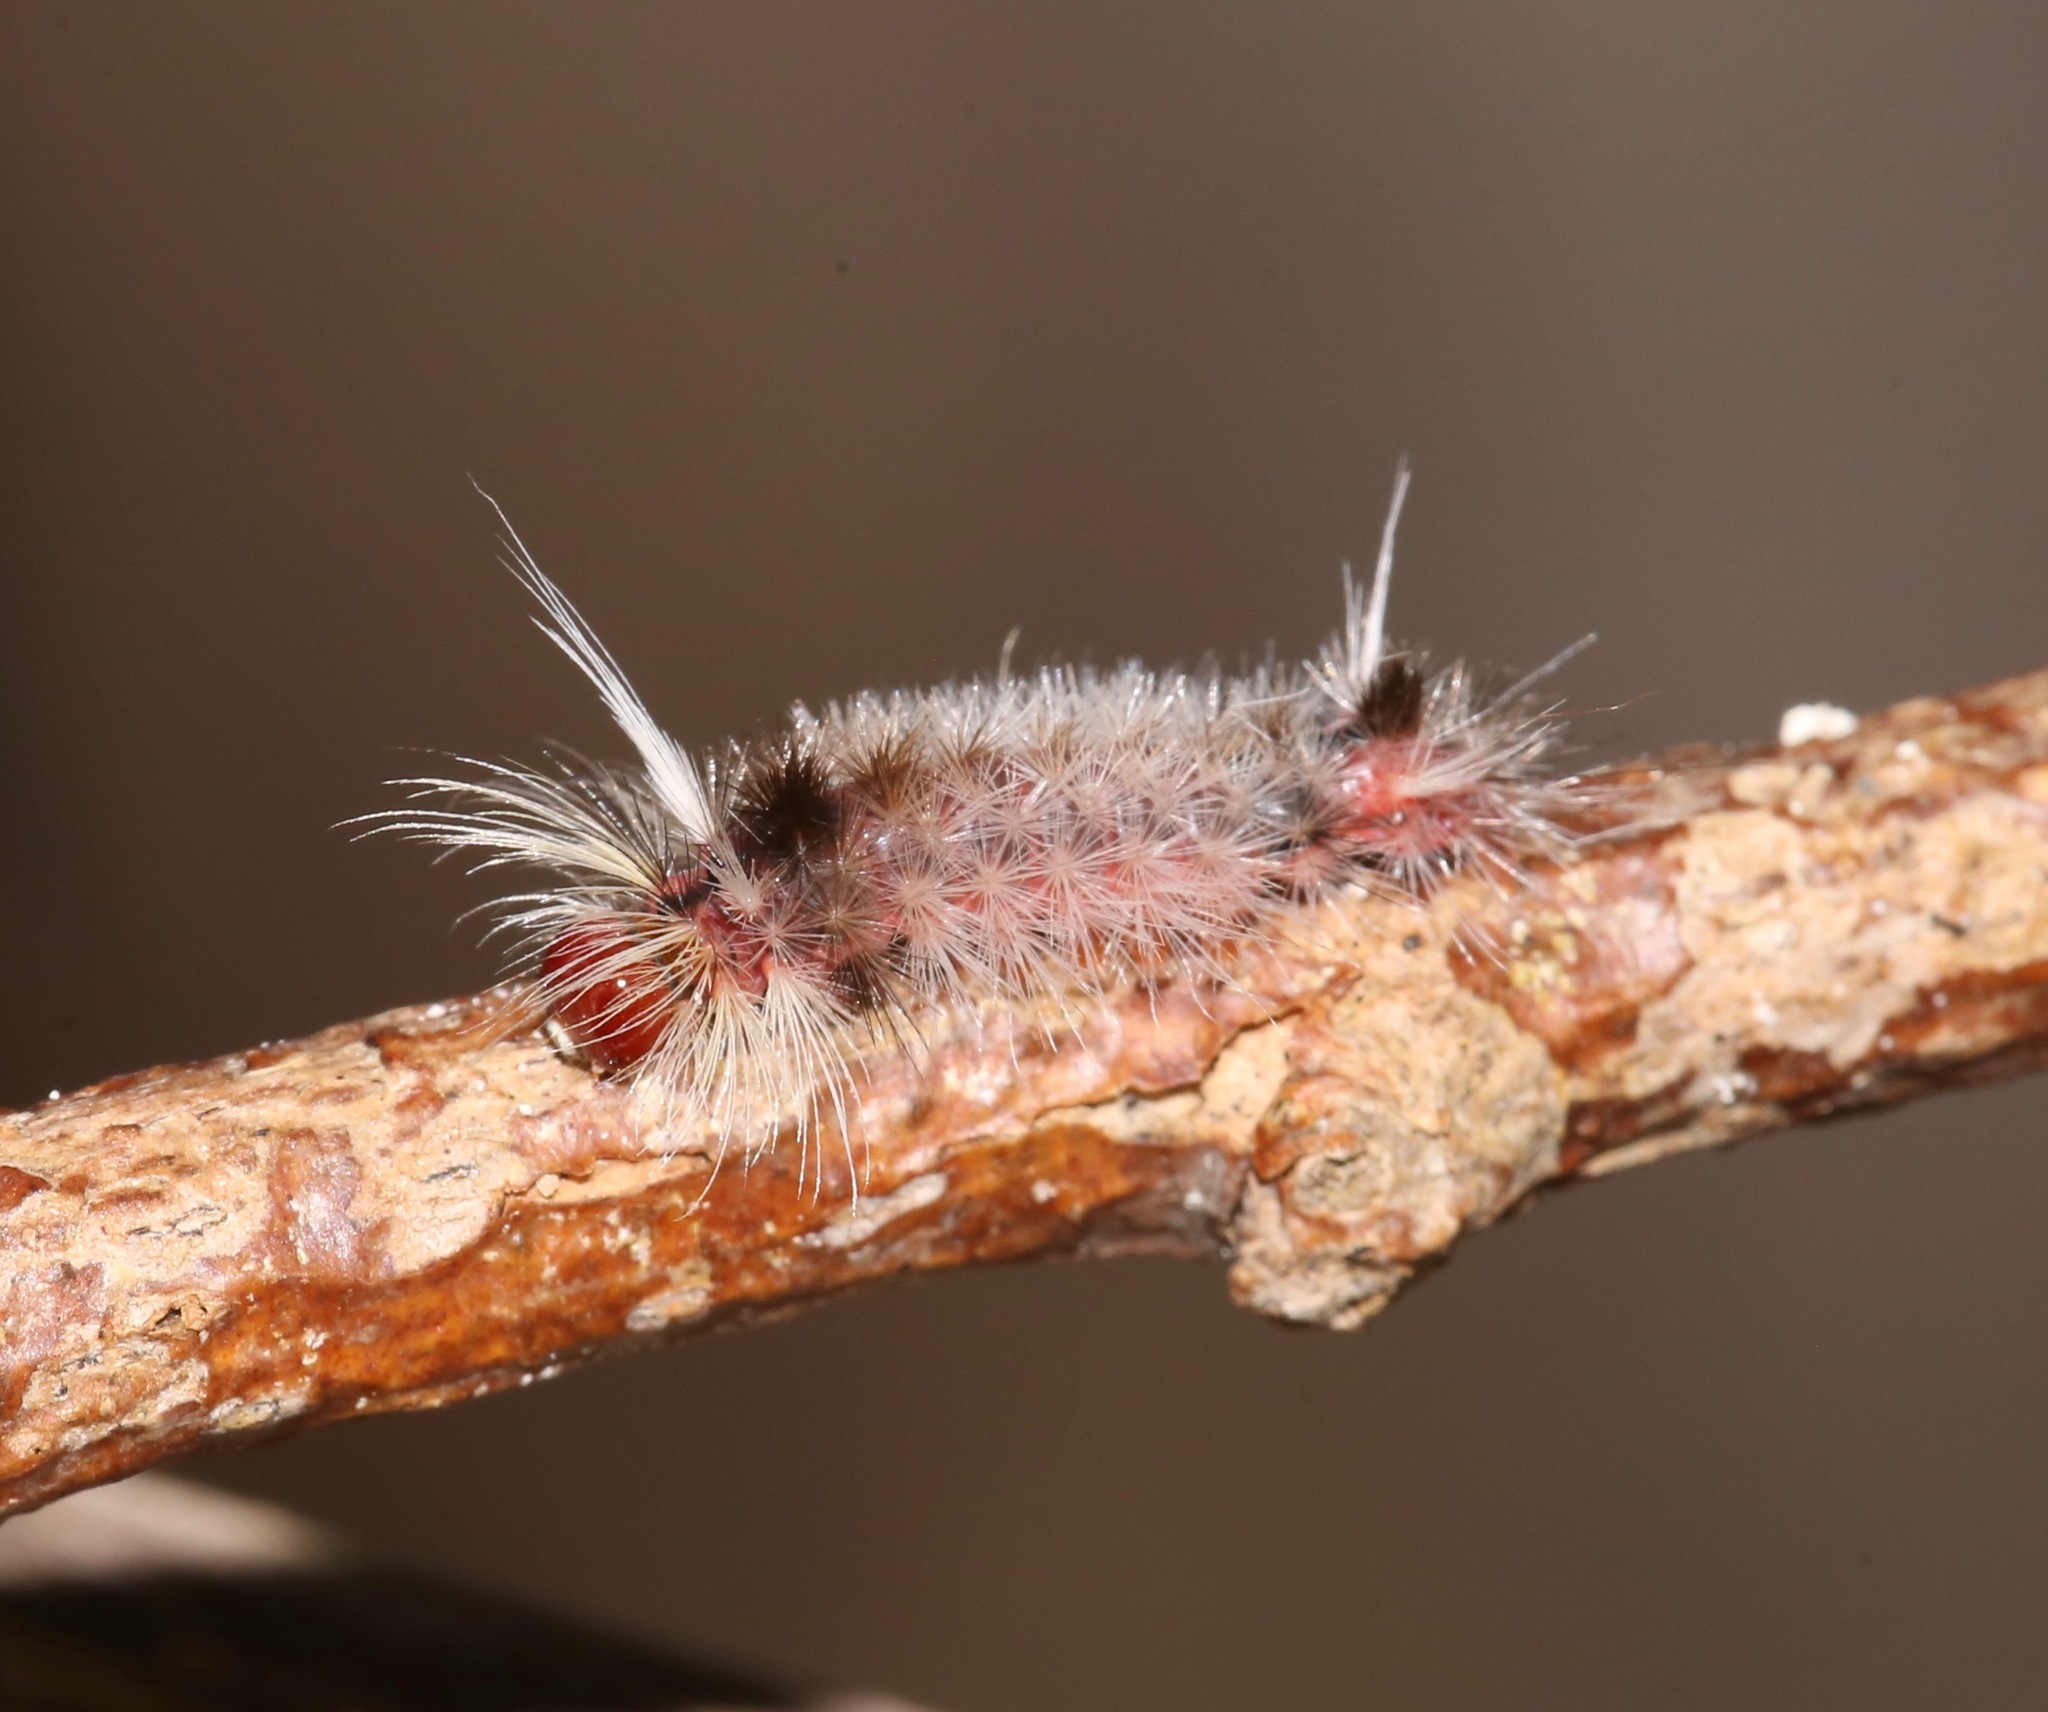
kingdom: Animalia
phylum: Arthropoda
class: Insecta
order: Lepidoptera
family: Erebidae
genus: Halysidota
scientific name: Halysidota cinctipes
